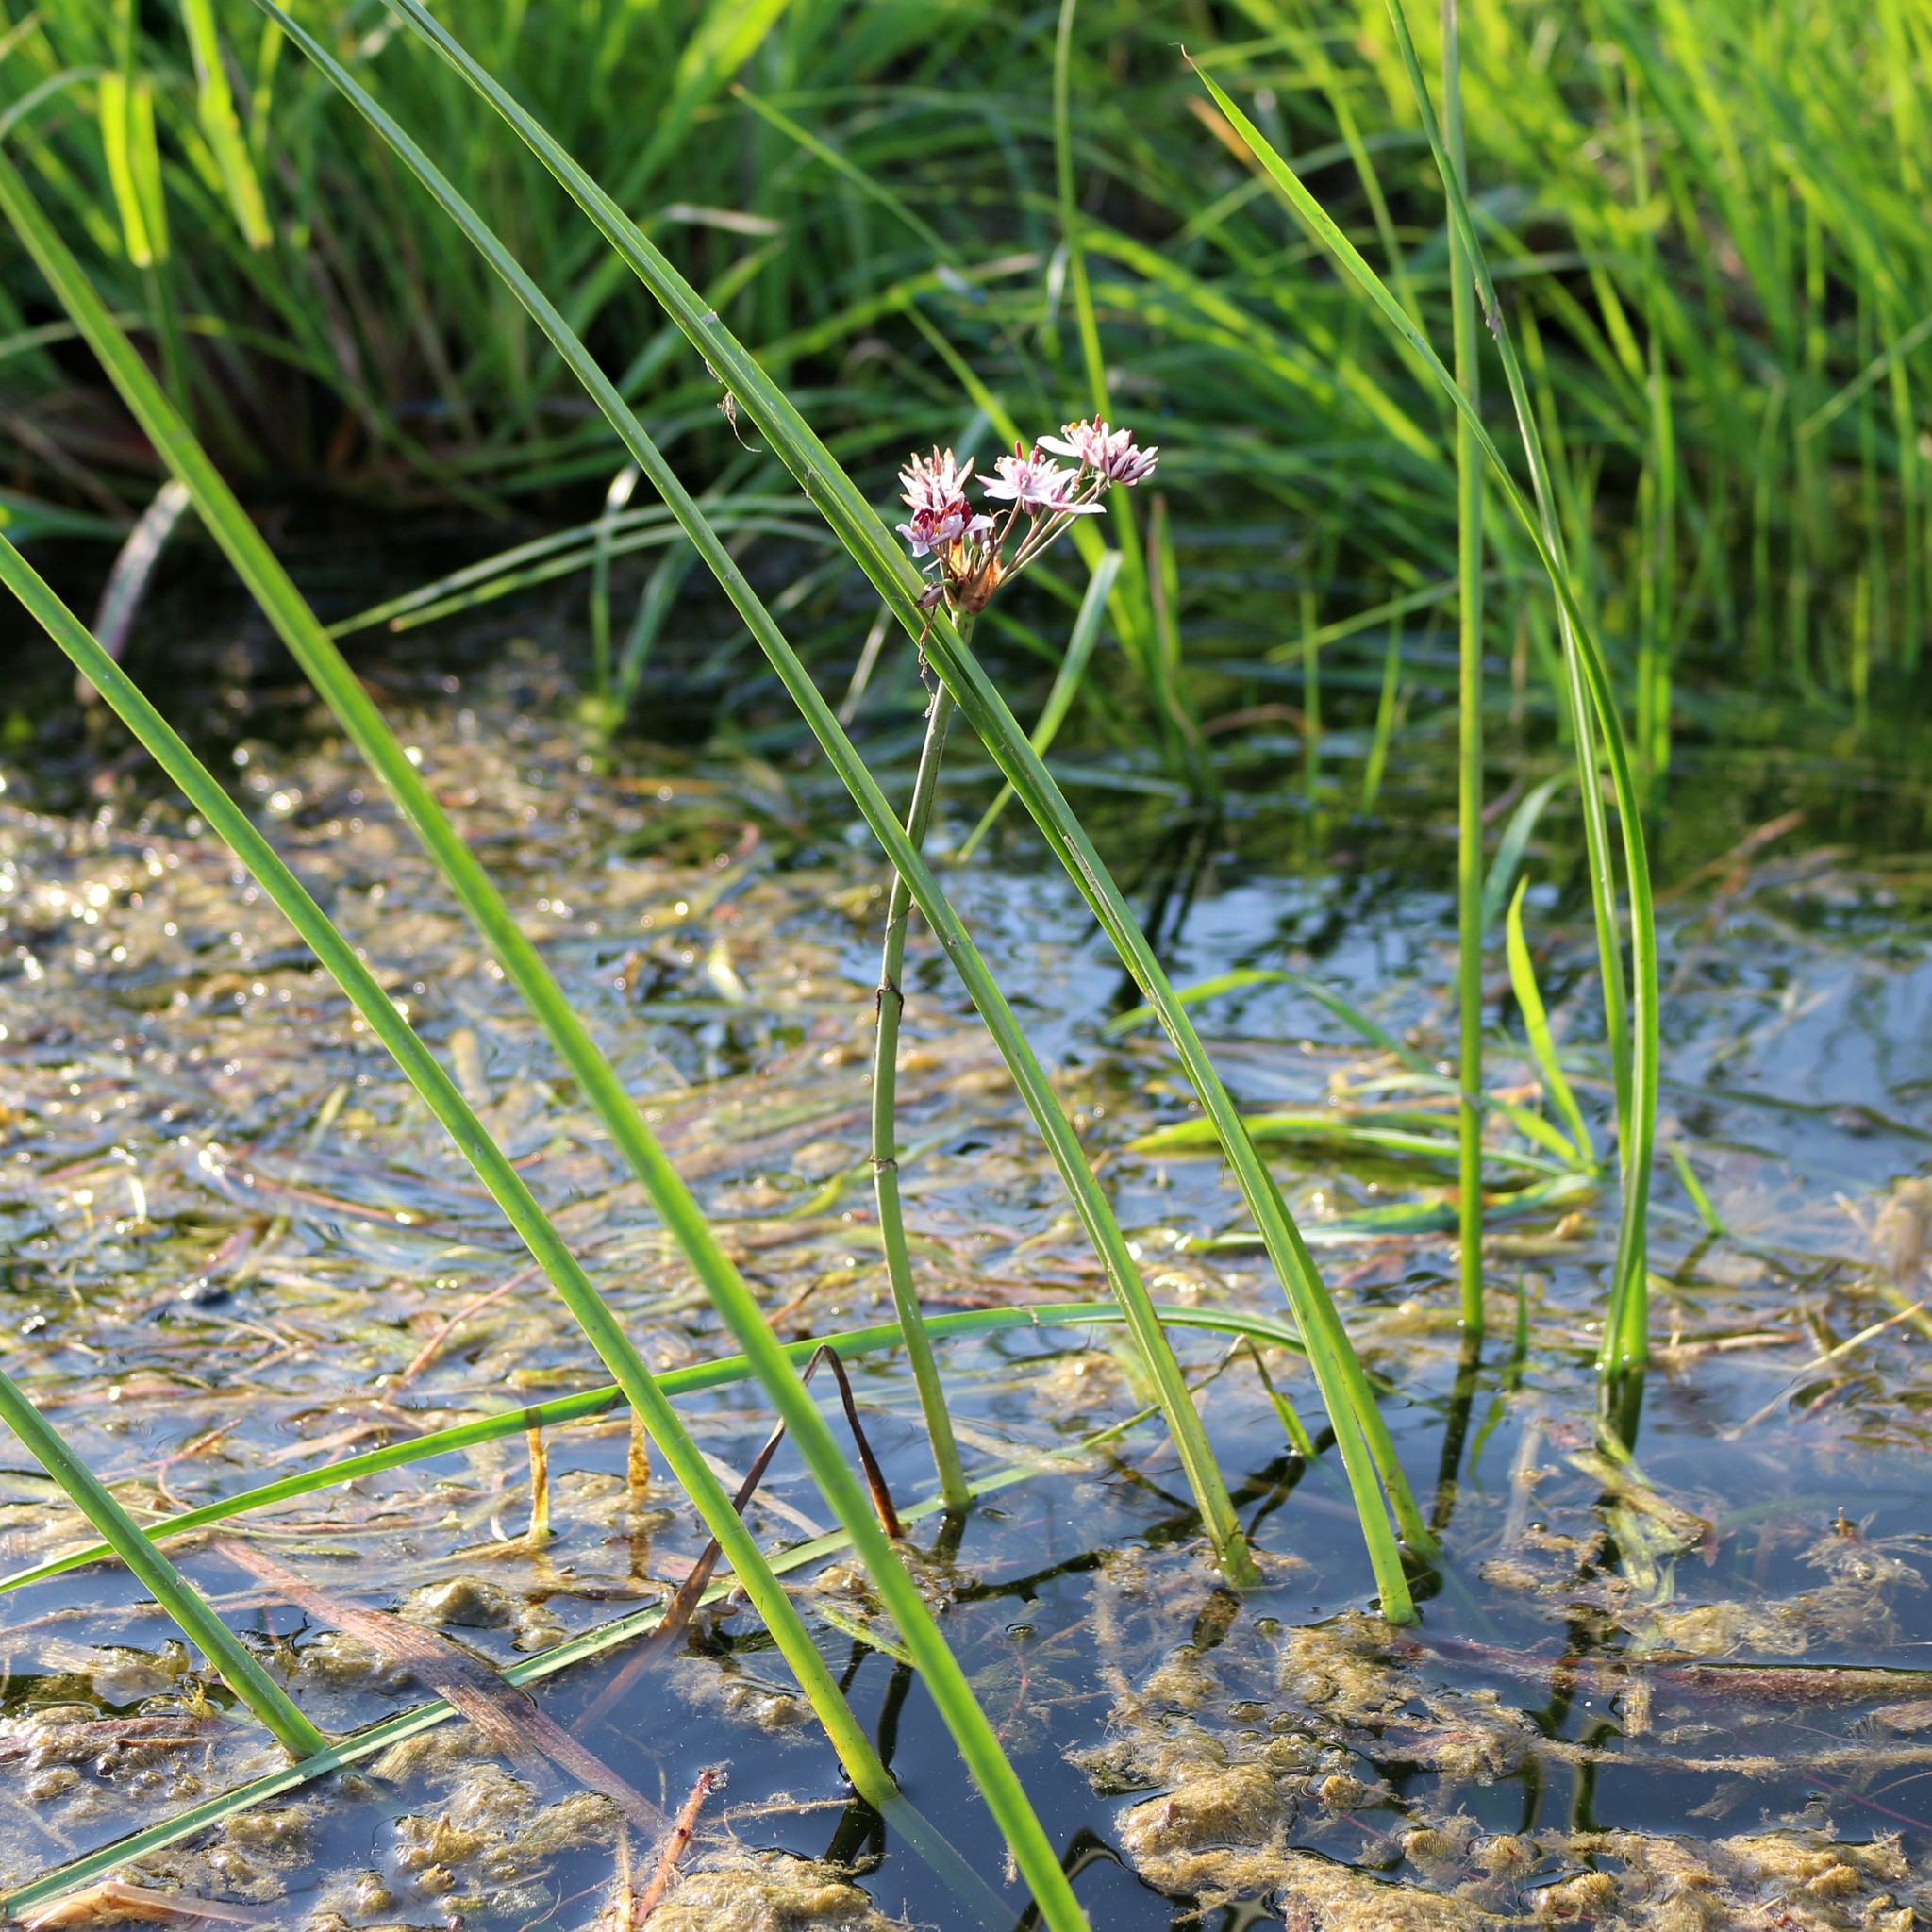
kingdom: Plantae
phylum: Tracheophyta
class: Liliopsida
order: Alismatales
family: Butomaceae
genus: Butomus
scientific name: Butomus umbellatus
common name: Flowering-rush
